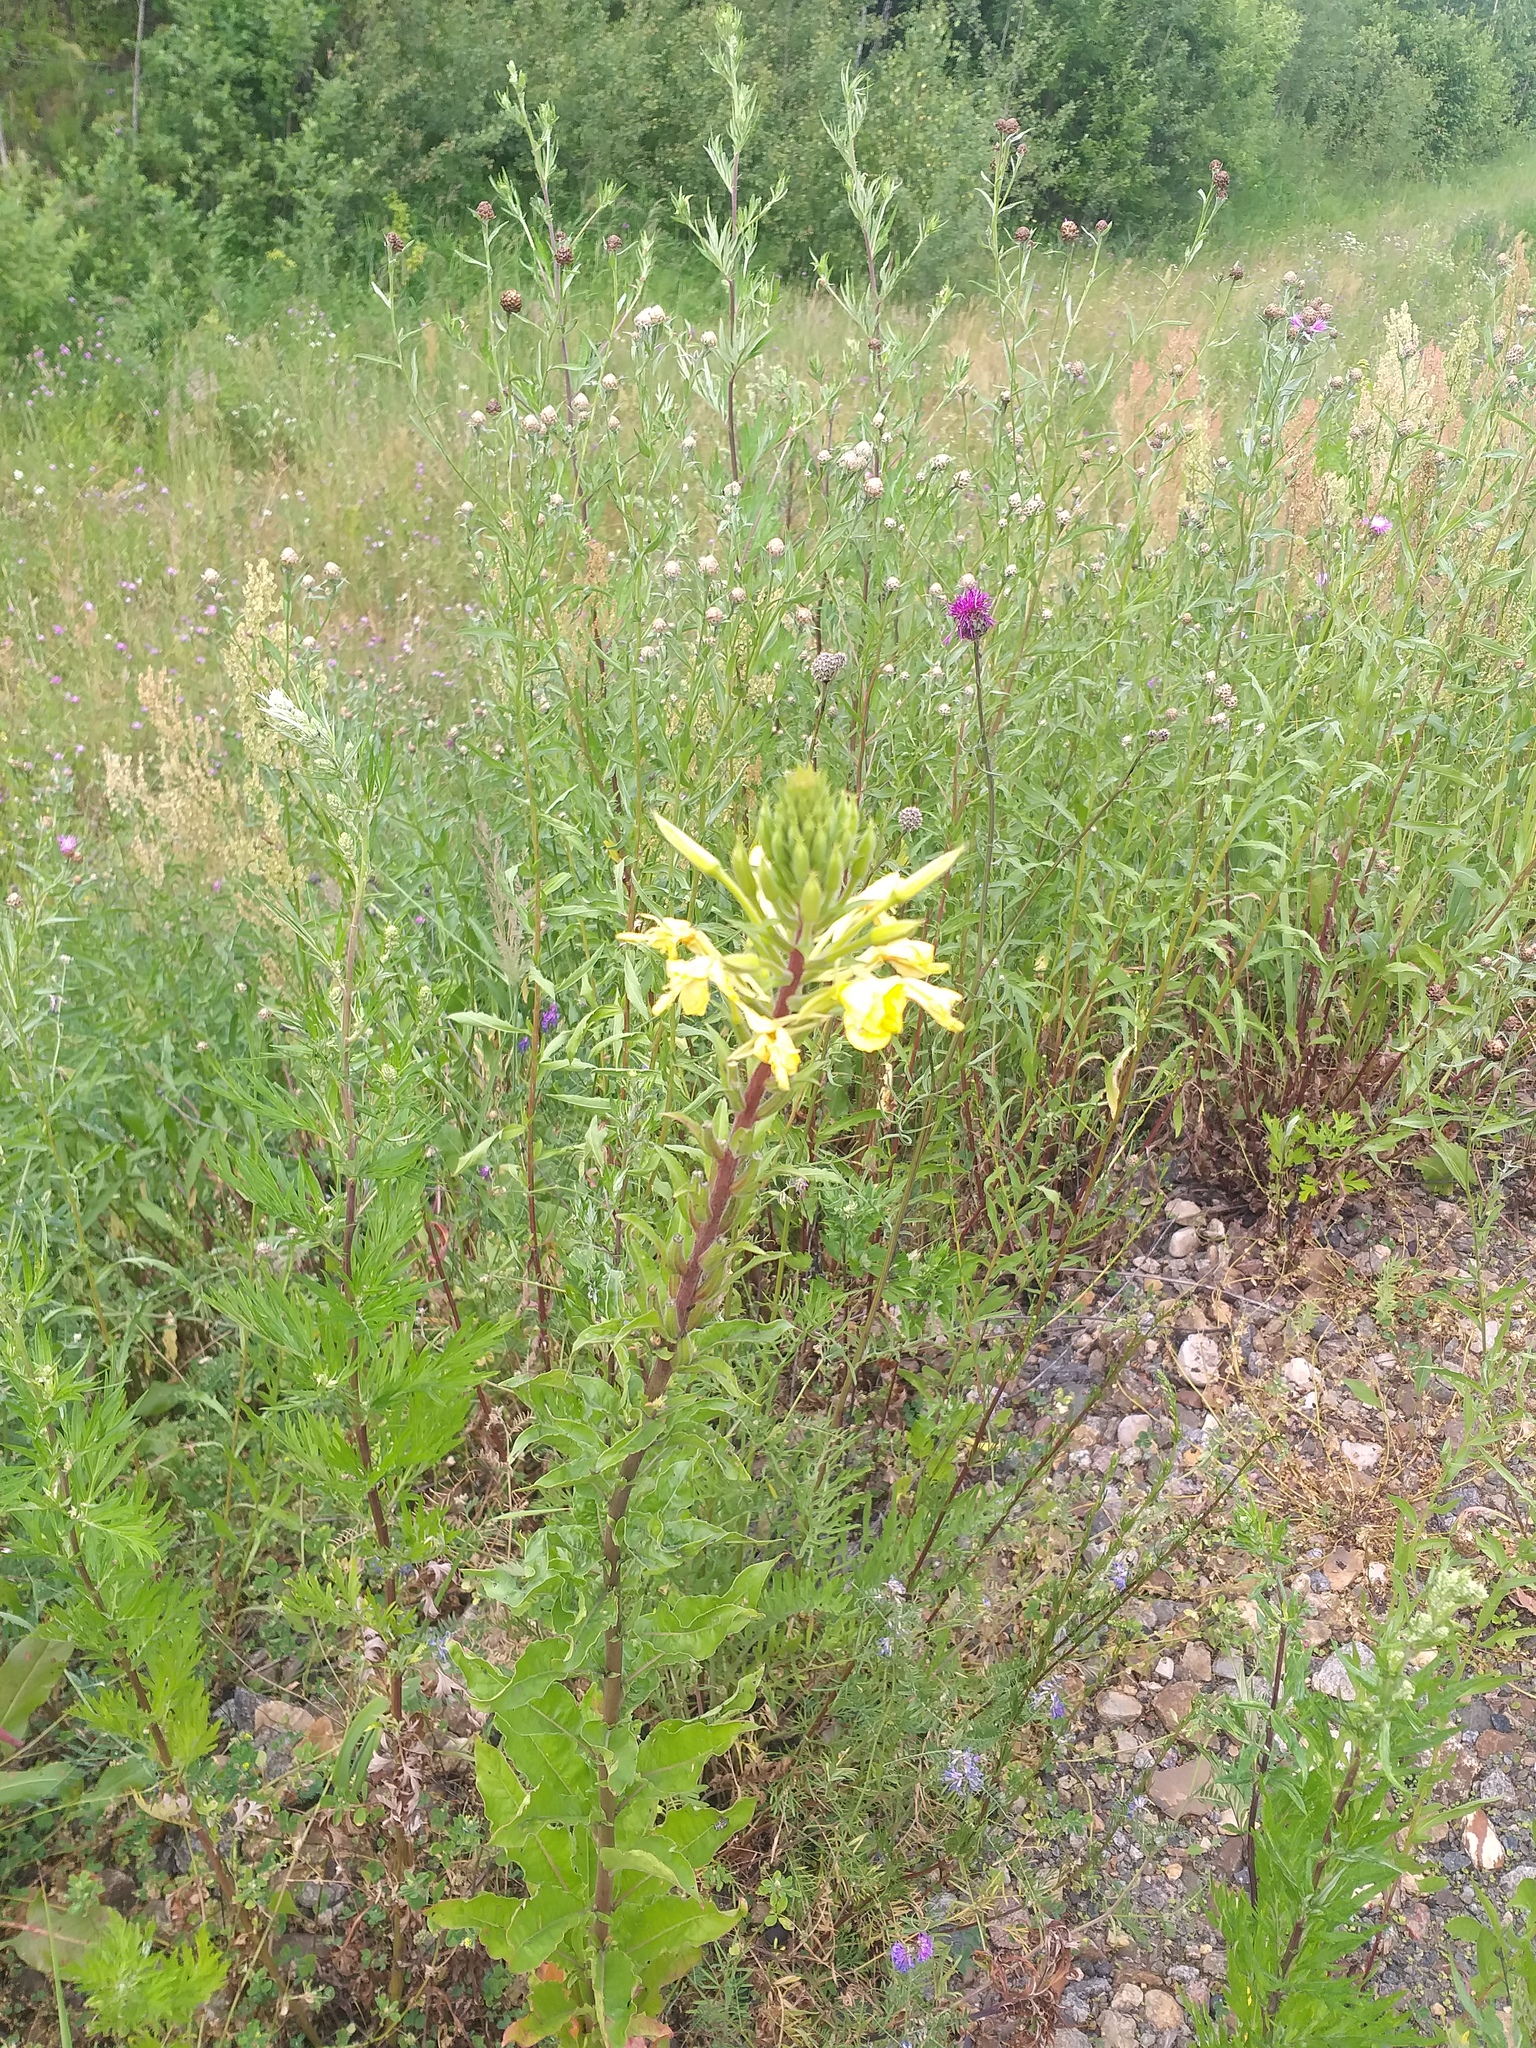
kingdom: Plantae
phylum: Tracheophyta
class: Magnoliopsida
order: Myrtales
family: Onagraceae
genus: Oenothera
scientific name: Oenothera rubricaulis
